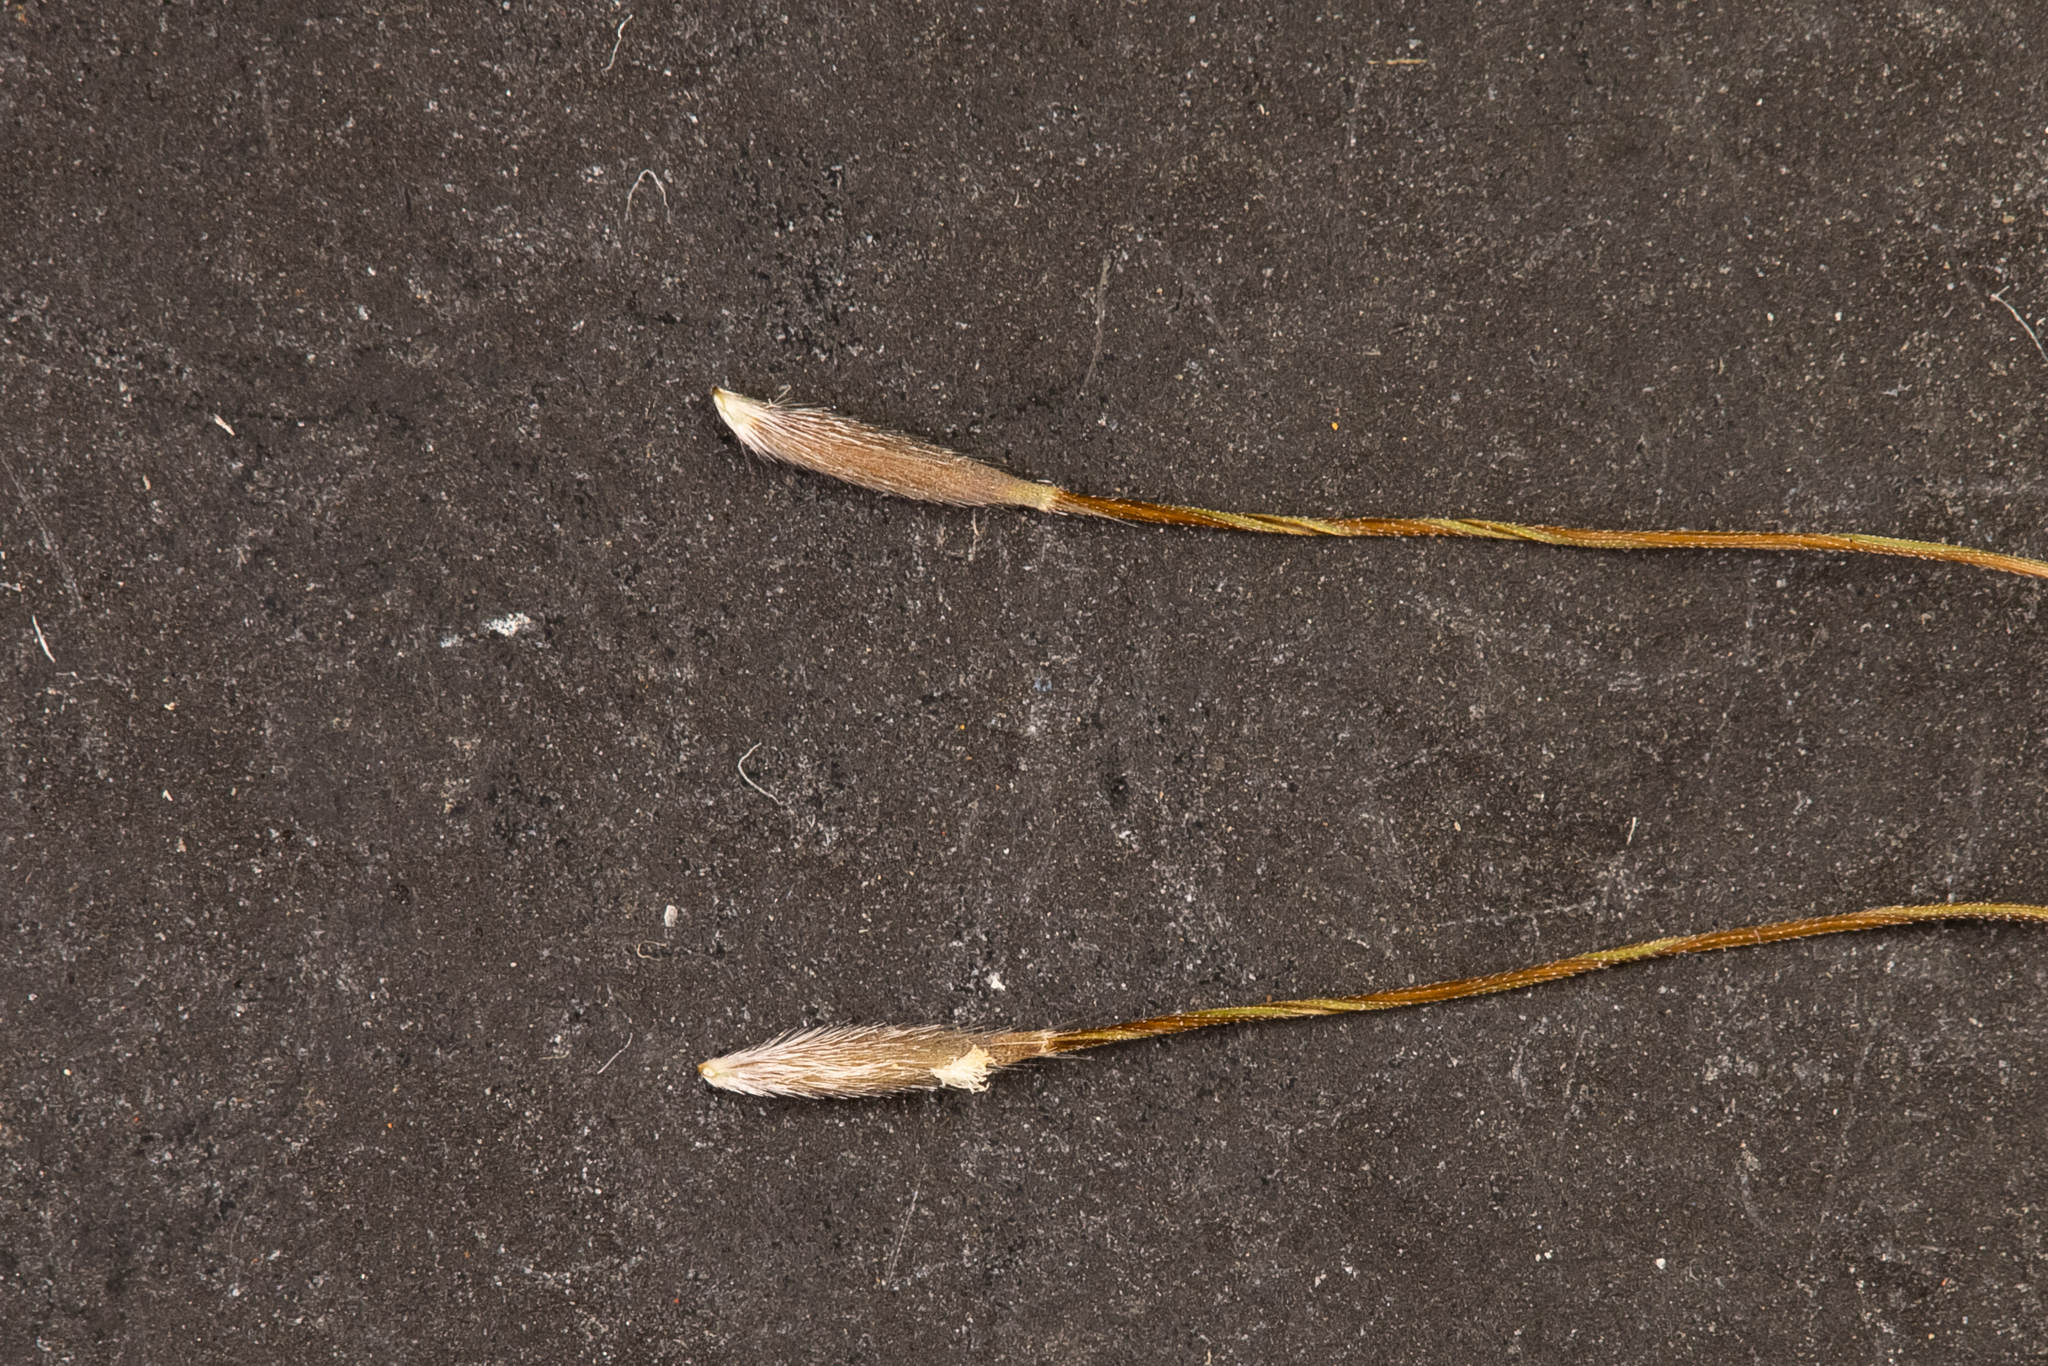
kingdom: Plantae
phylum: Tracheophyta
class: Liliopsida
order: Poales
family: Poaceae
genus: Austrostipa
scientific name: Austrostipa breviglumis
